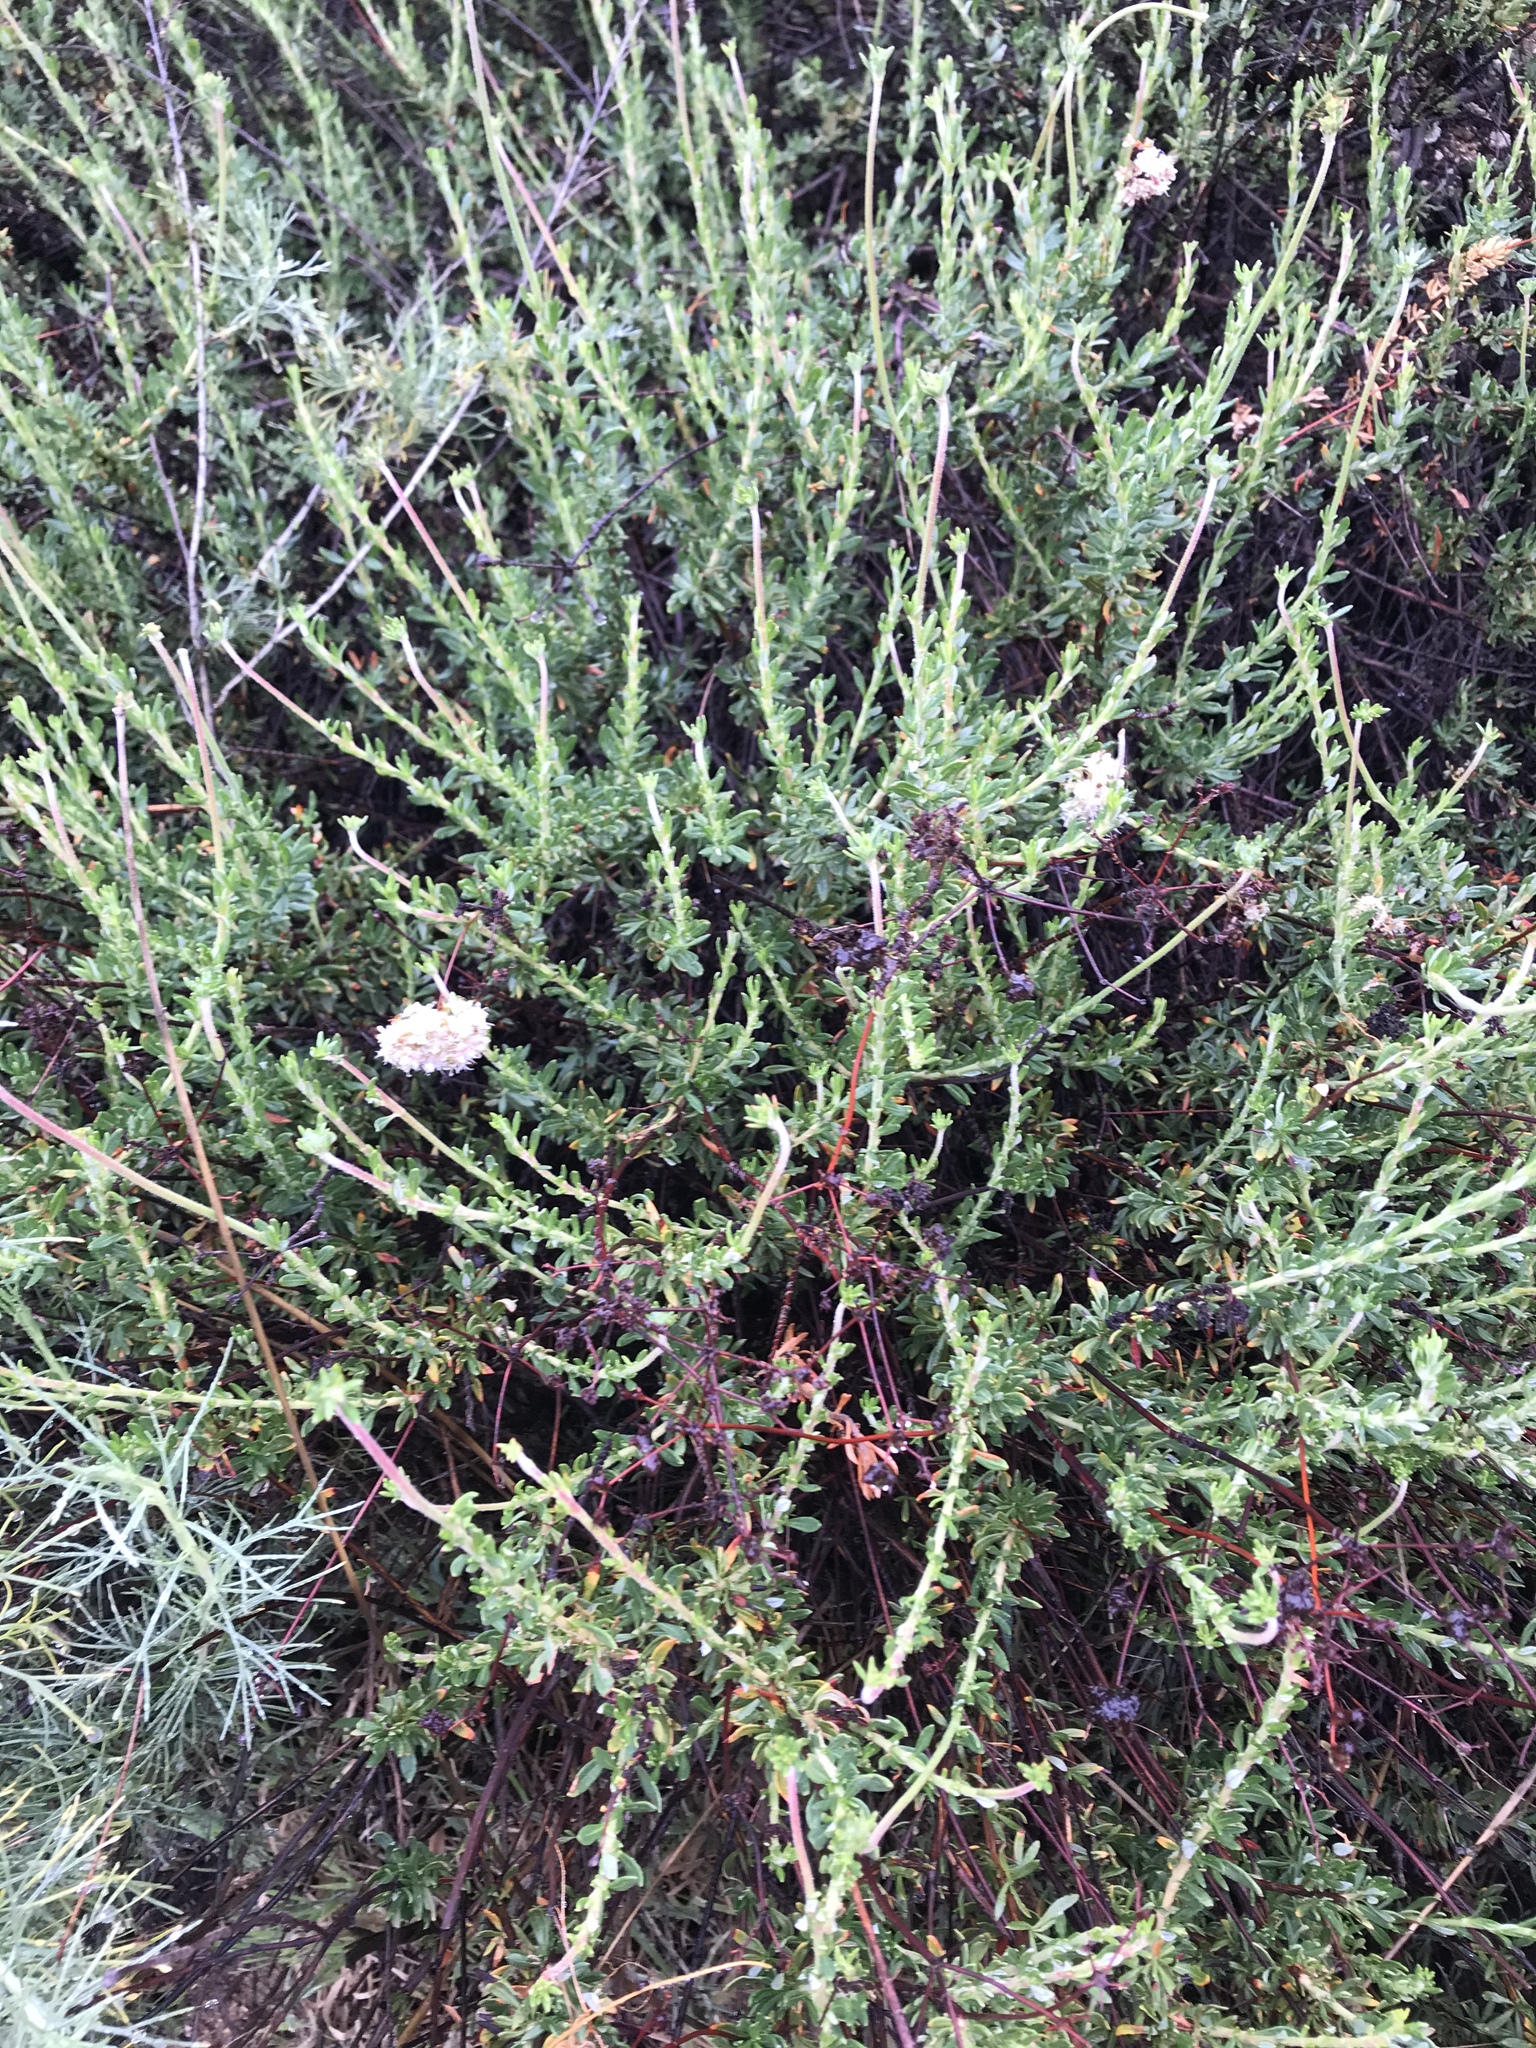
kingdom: Plantae
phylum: Tracheophyta
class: Magnoliopsida
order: Caryophyllales
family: Polygonaceae
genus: Eriogonum
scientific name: Eriogonum fasciculatum
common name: California wild buckwheat
